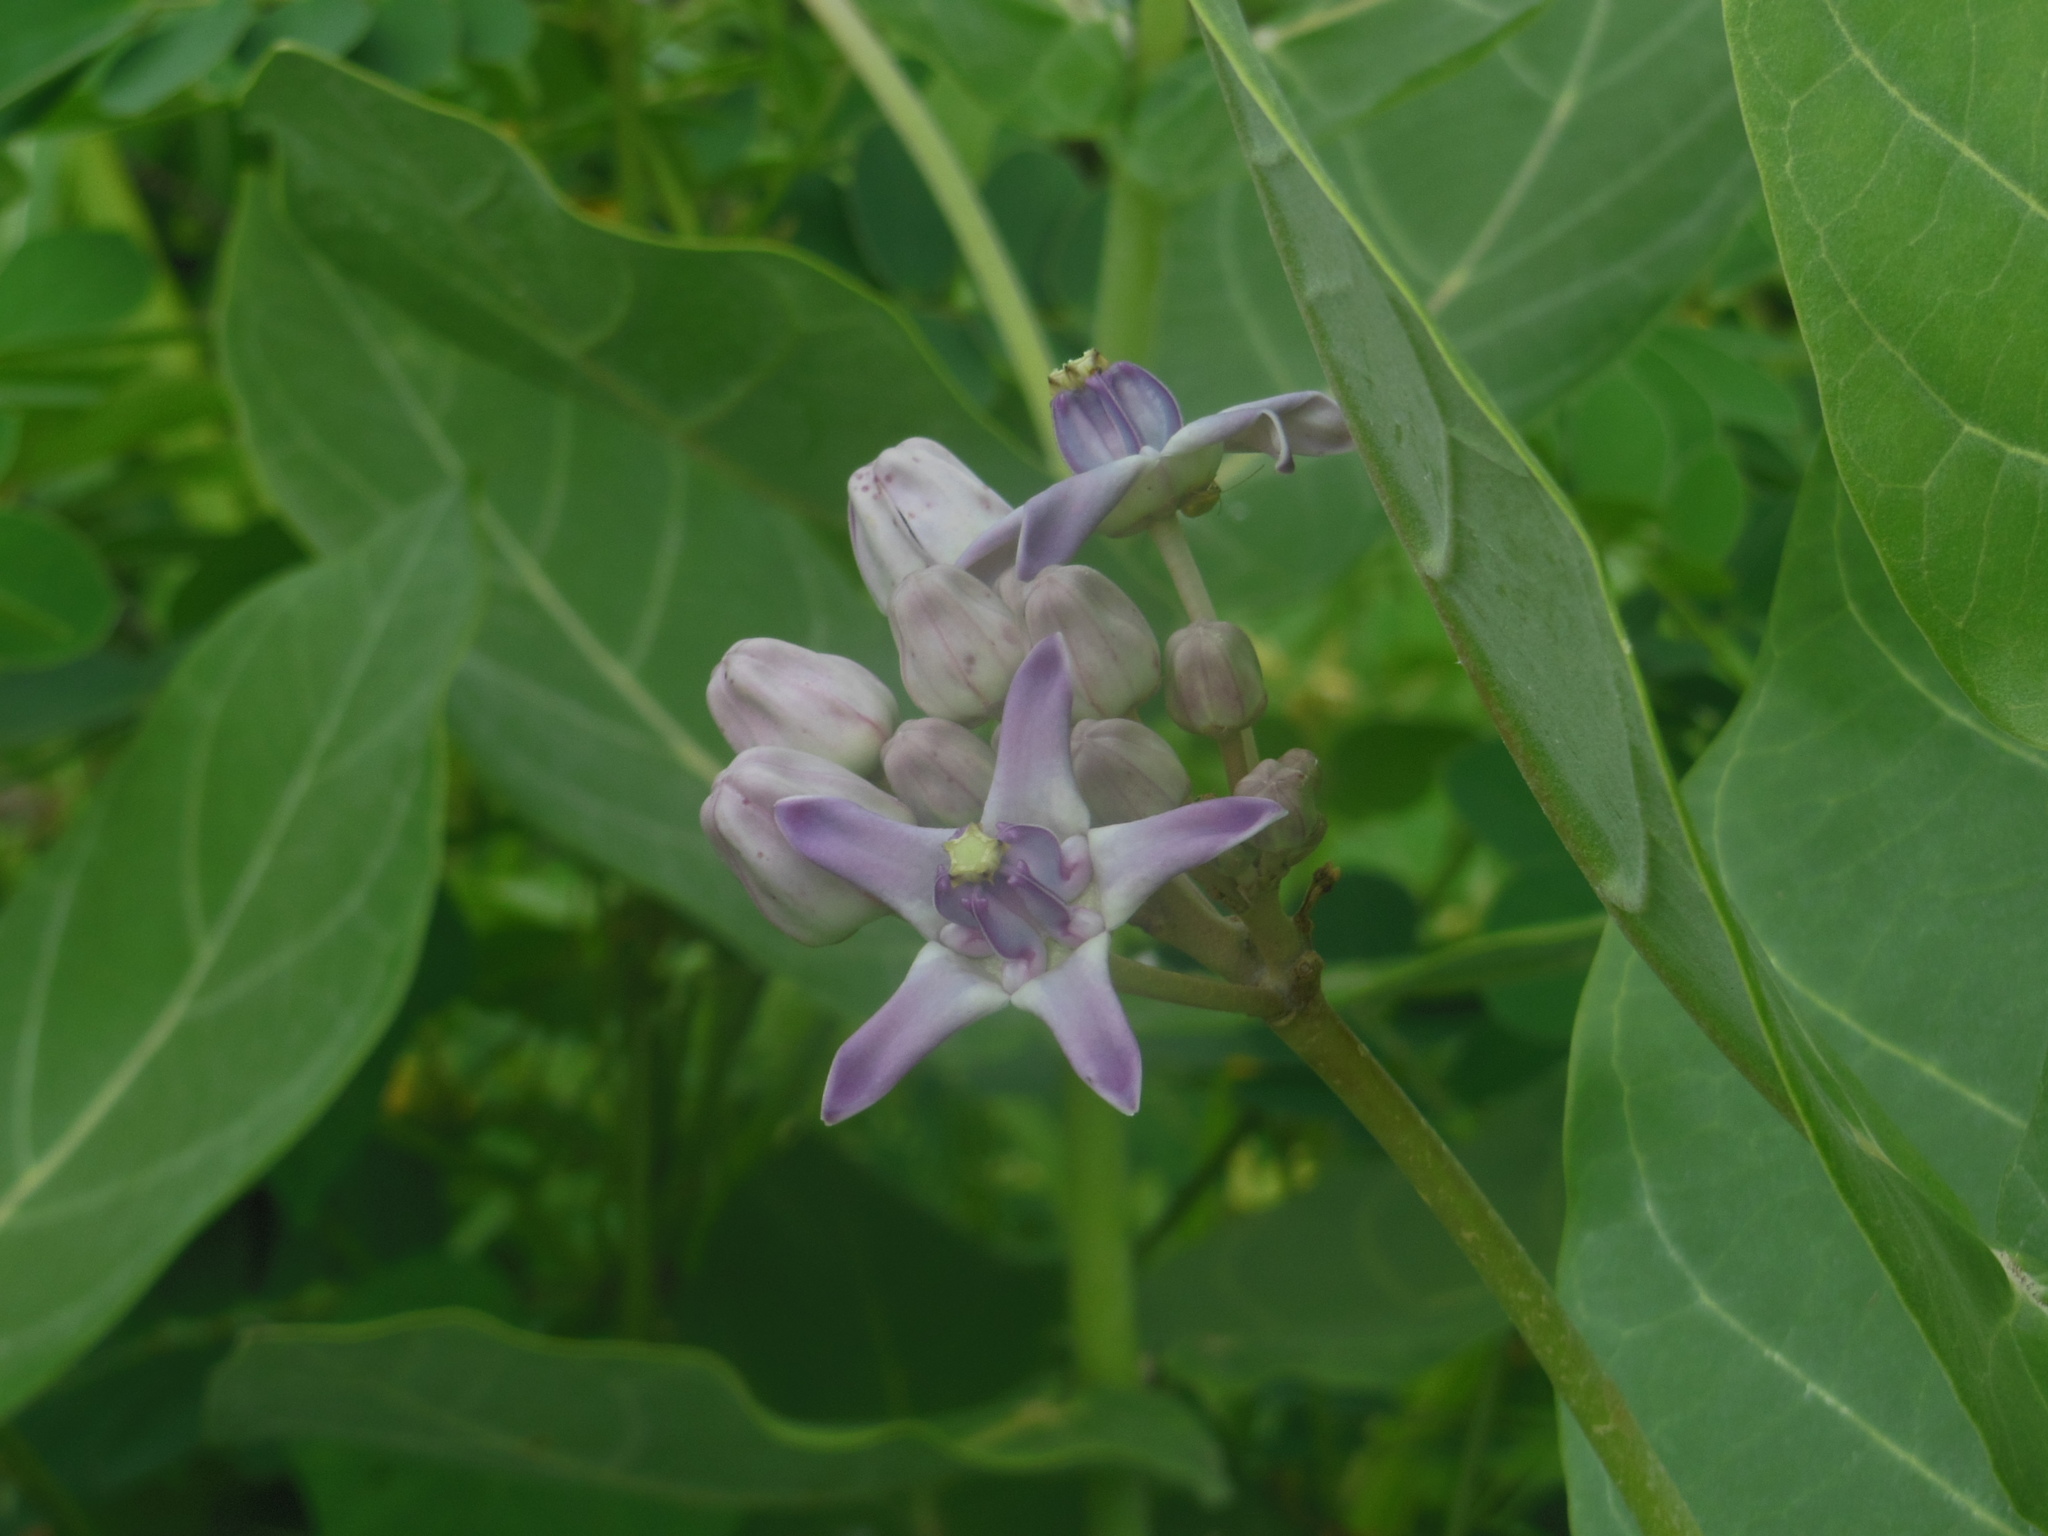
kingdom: Plantae
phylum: Tracheophyta
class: Magnoliopsida
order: Gentianales
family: Apocynaceae
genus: Calotropis
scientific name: Calotropis gigantea
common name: Crown flower
